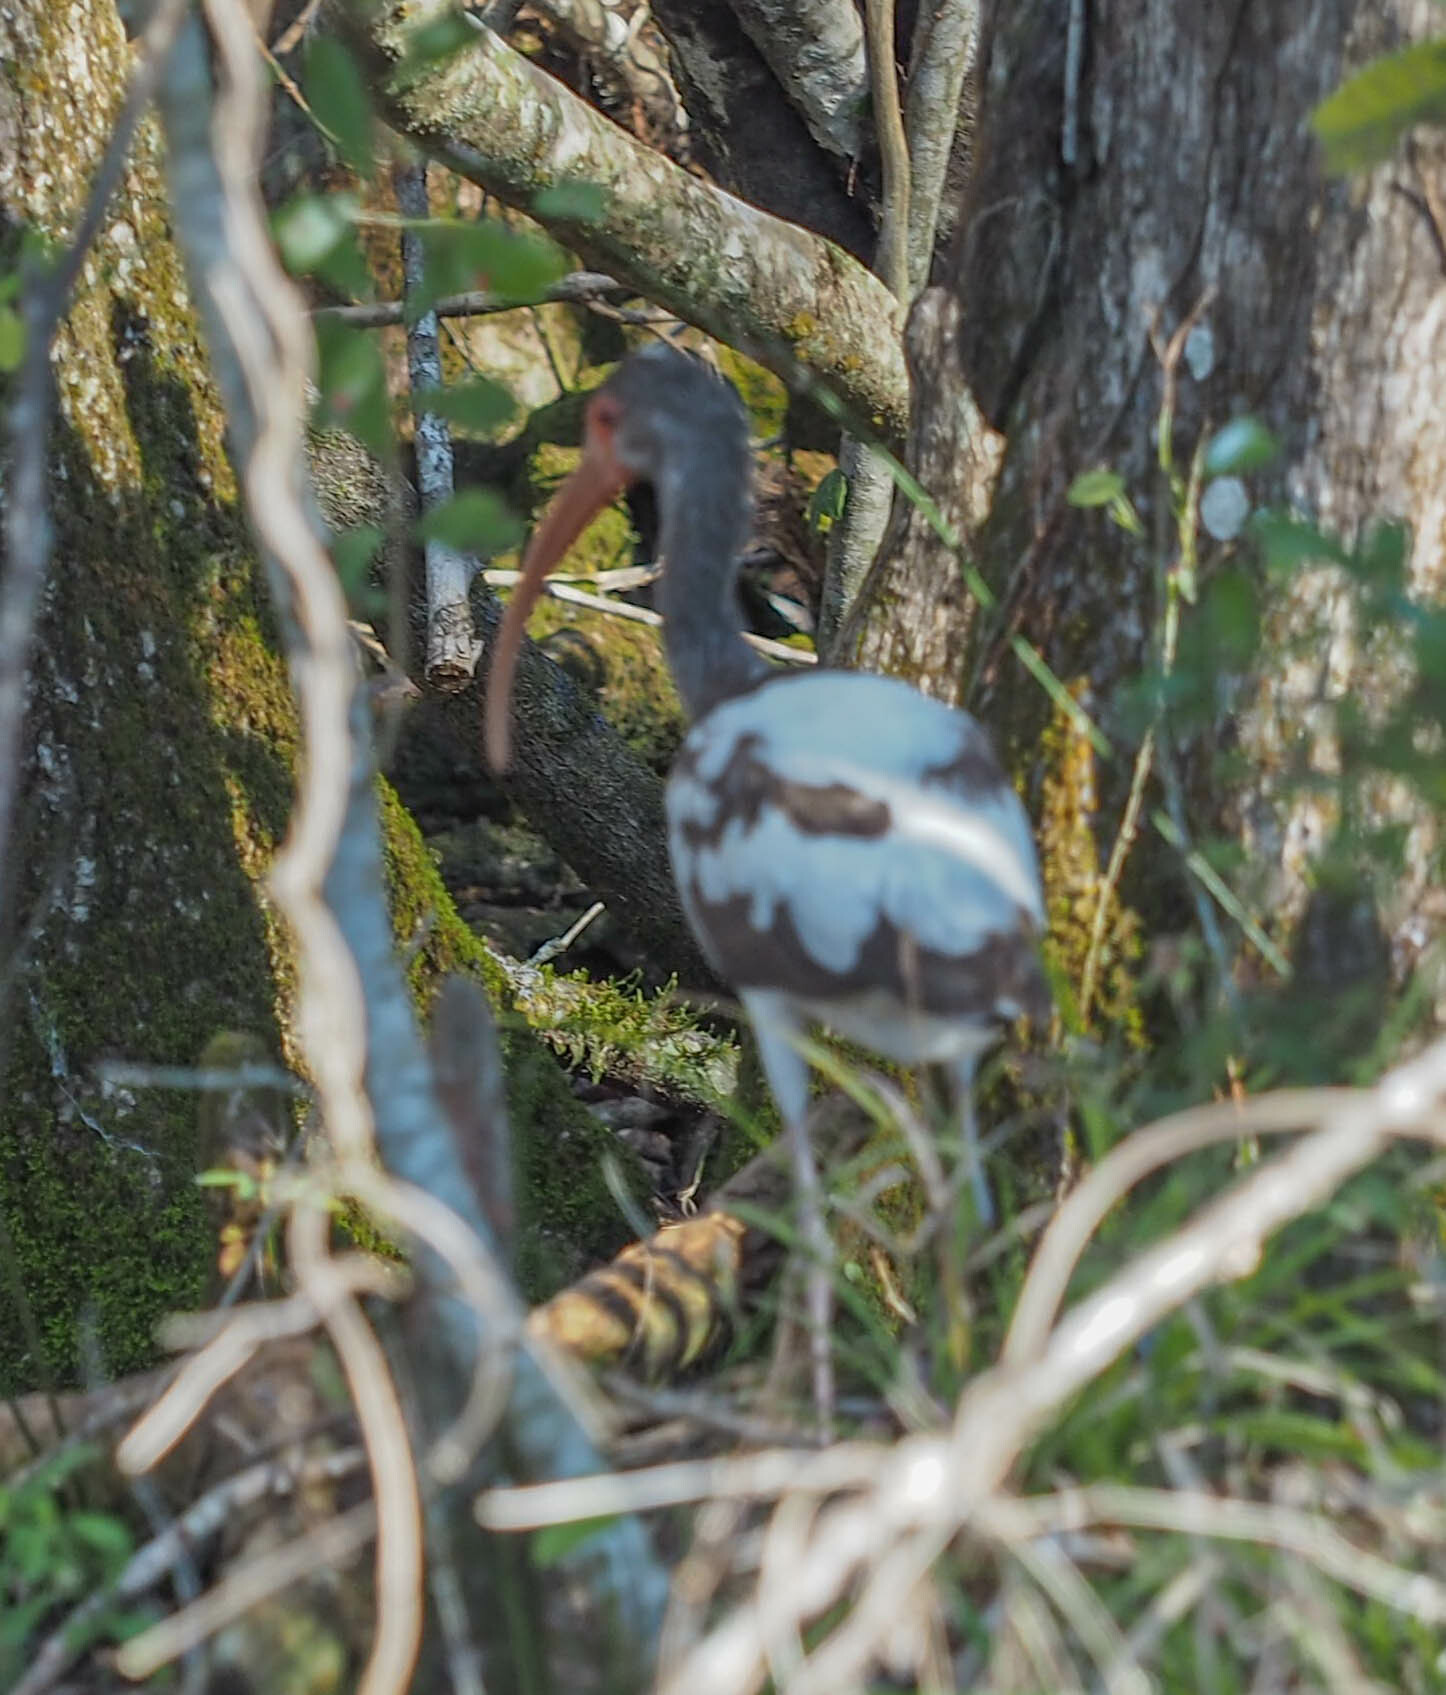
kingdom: Animalia
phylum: Chordata
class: Aves
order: Pelecaniformes
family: Threskiornithidae
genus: Eudocimus
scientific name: Eudocimus albus
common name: White ibis
